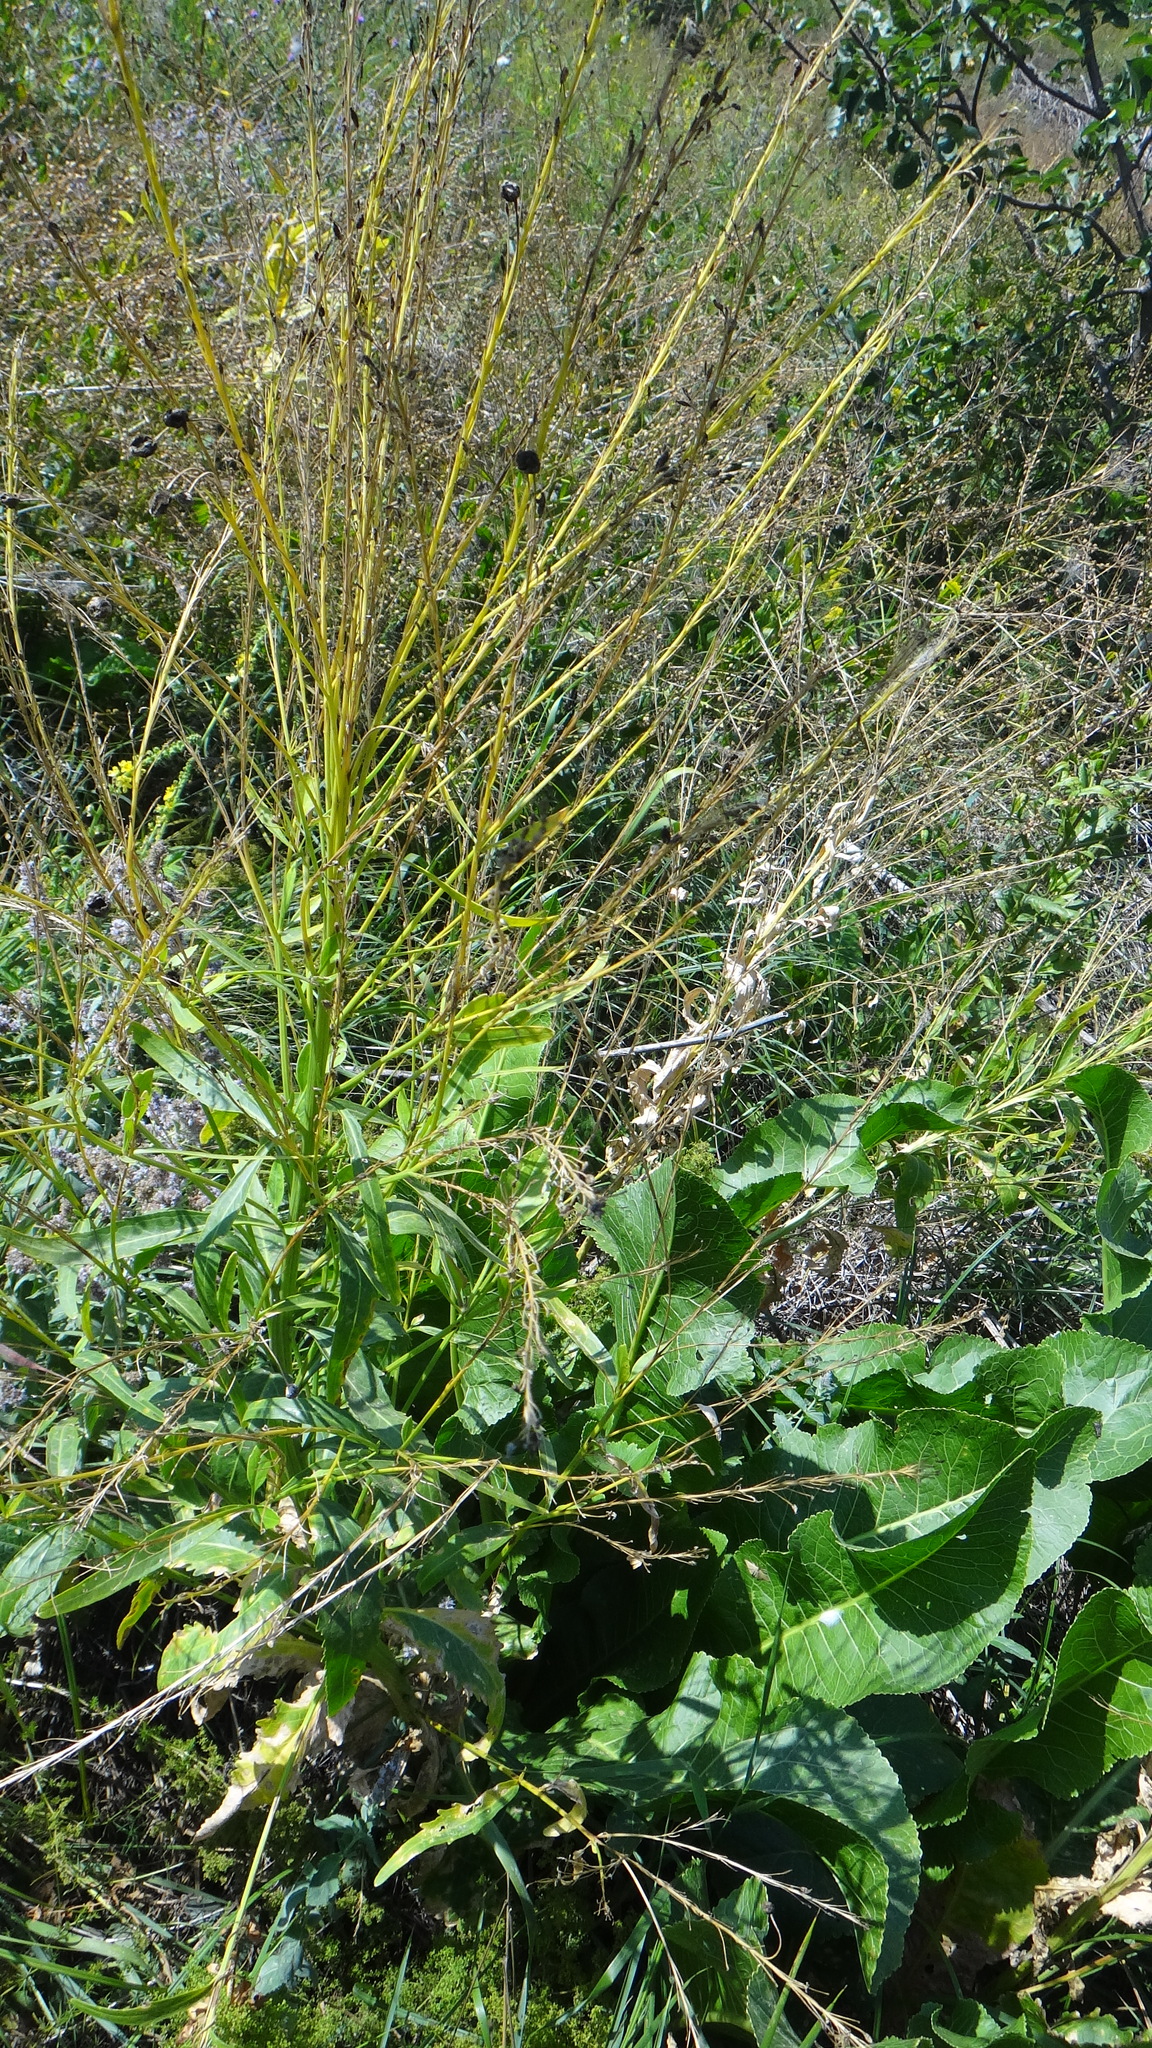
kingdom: Plantae
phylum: Tracheophyta
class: Magnoliopsida
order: Brassicales
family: Brassicaceae
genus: Armoracia
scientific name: Armoracia rusticana
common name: Horseradish
